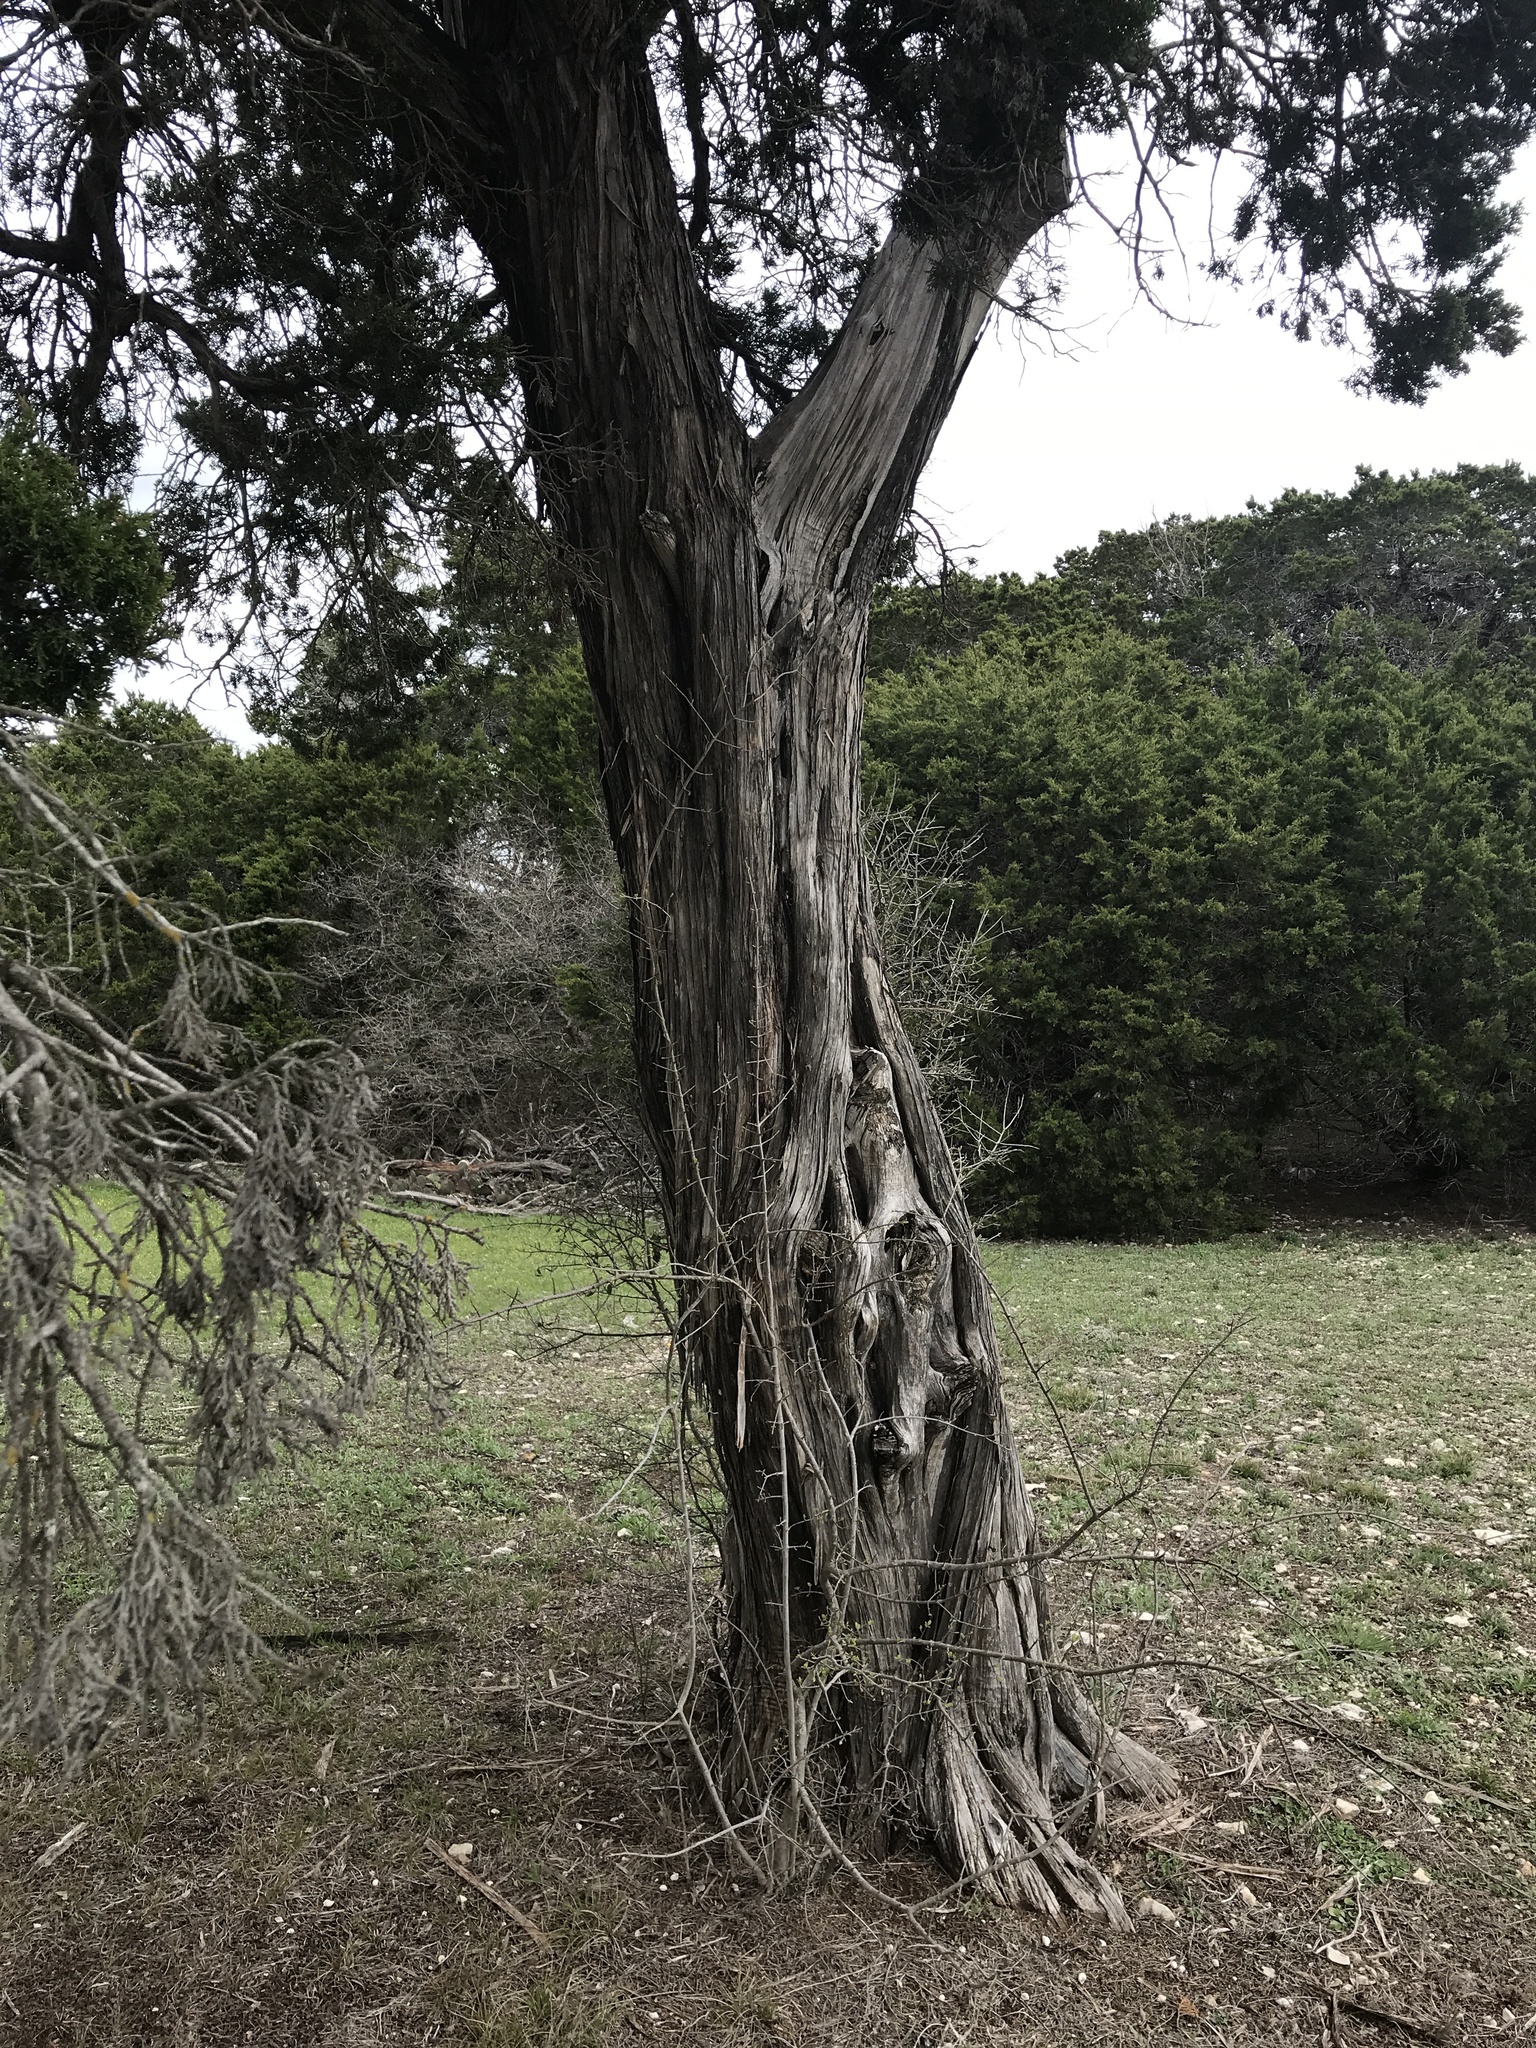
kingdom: Plantae
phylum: Tracheophyta
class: Pinopsida
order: Pinales
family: Cupressaceae
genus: Juniperus
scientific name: Juniperus ashei
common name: Mexican juniper
